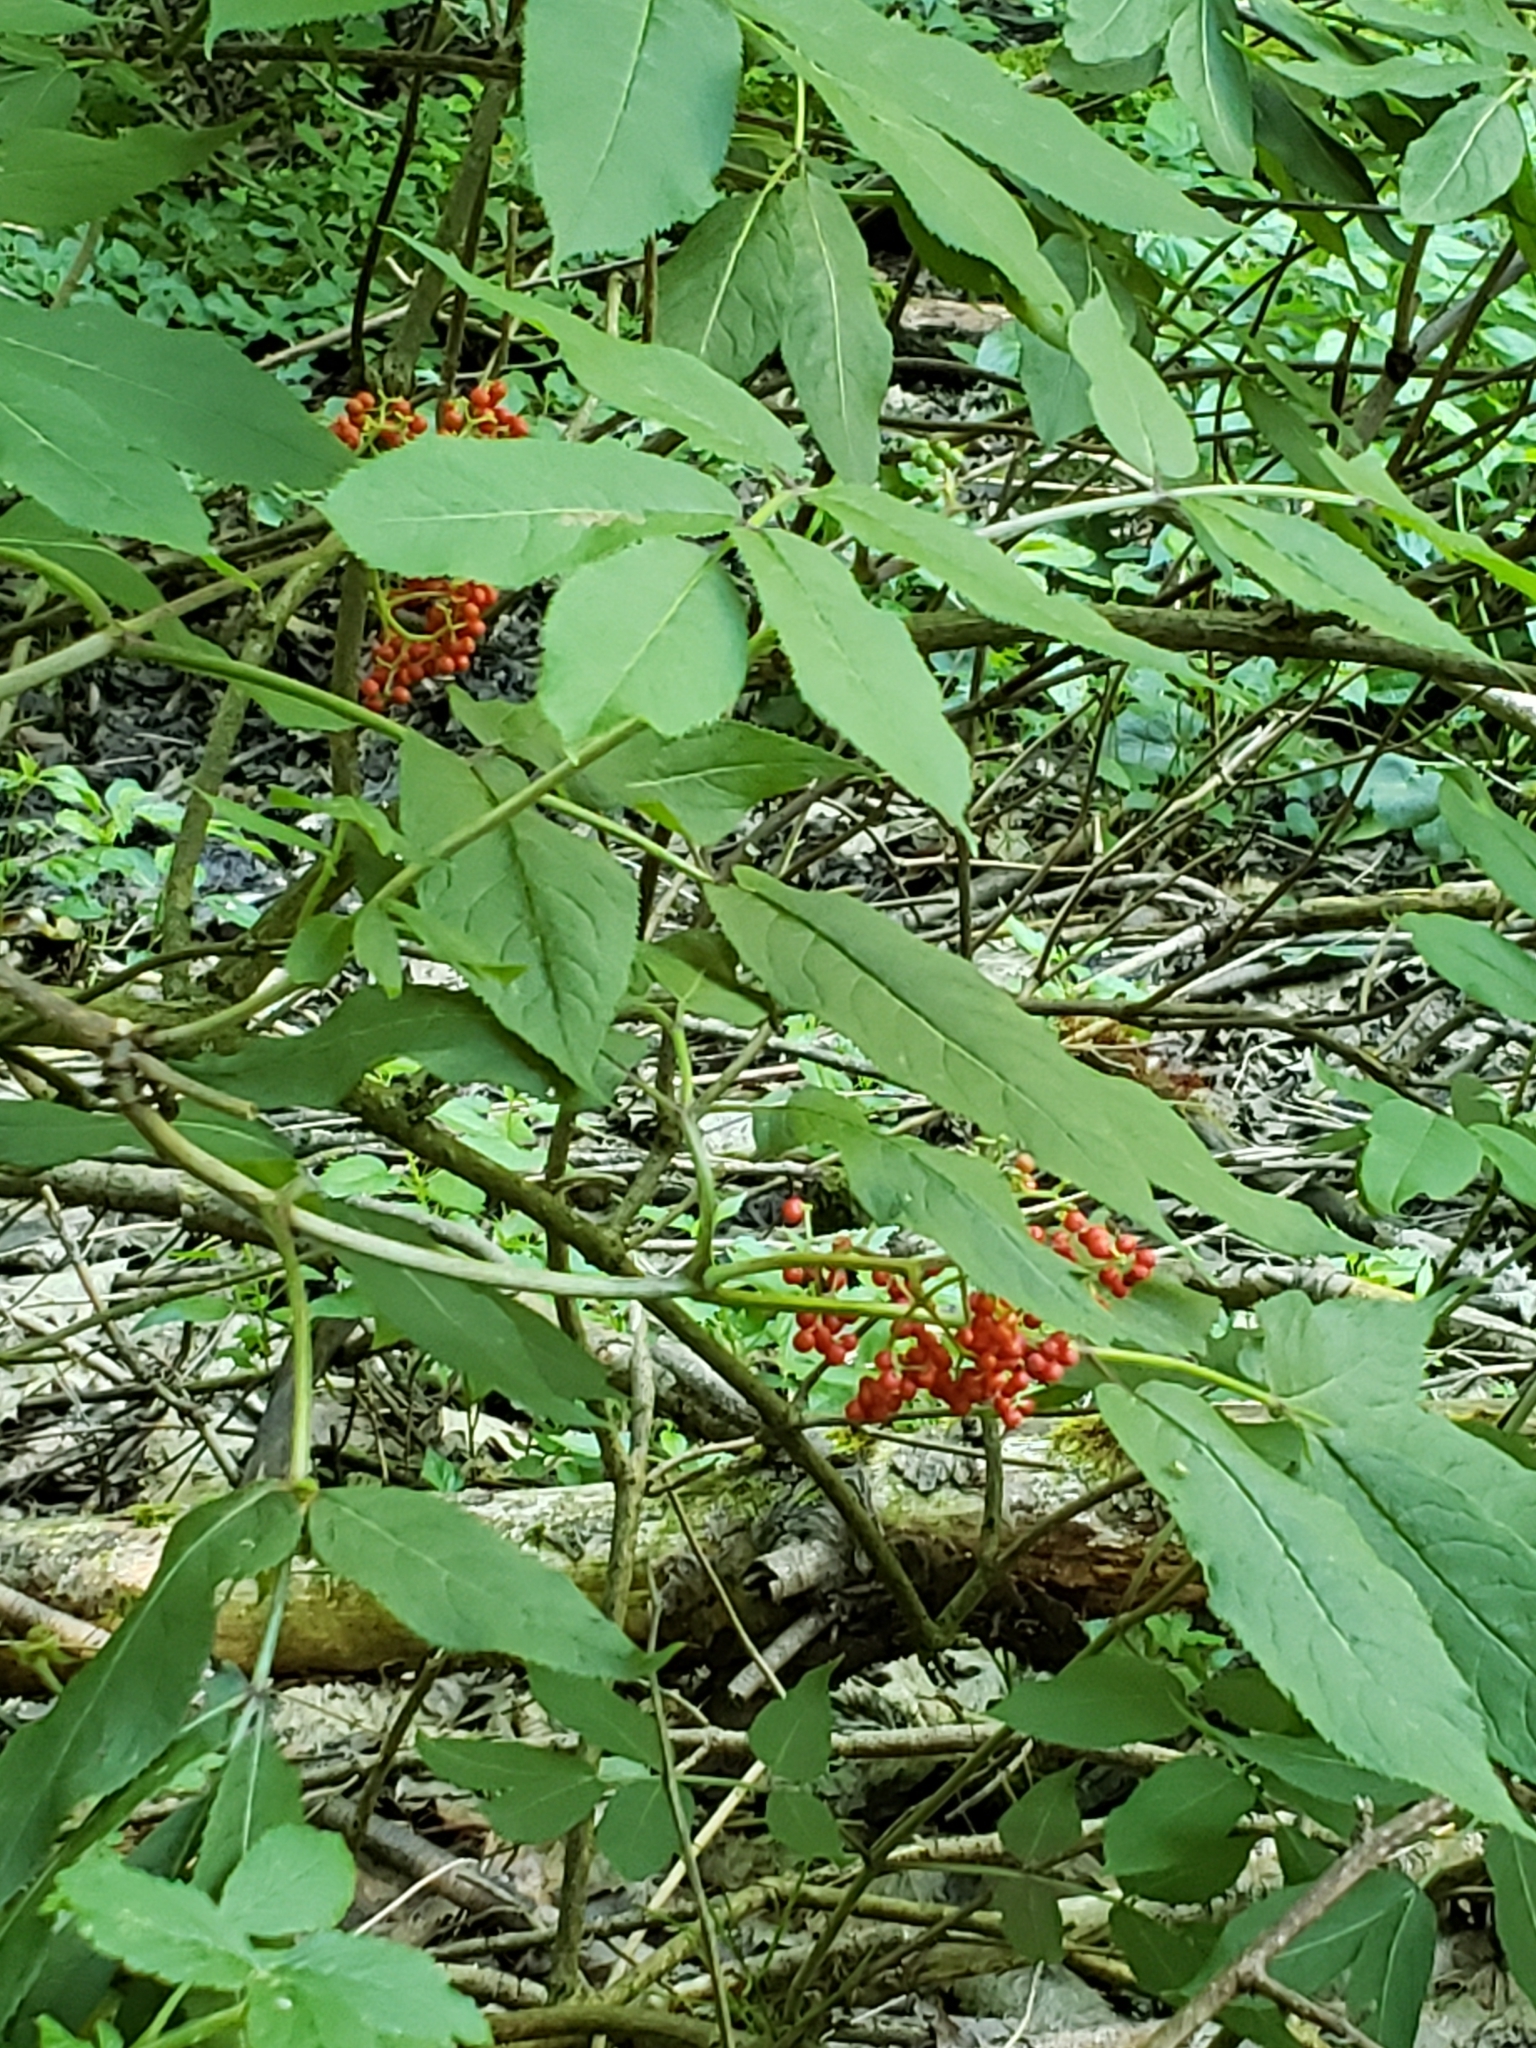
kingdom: Plantae
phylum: Tracheophyta
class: Magnoliopsida
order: Dipsacales
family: Viburnaceae
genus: Sambucus
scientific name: Sambucus racemosa
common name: Red-berried elder
